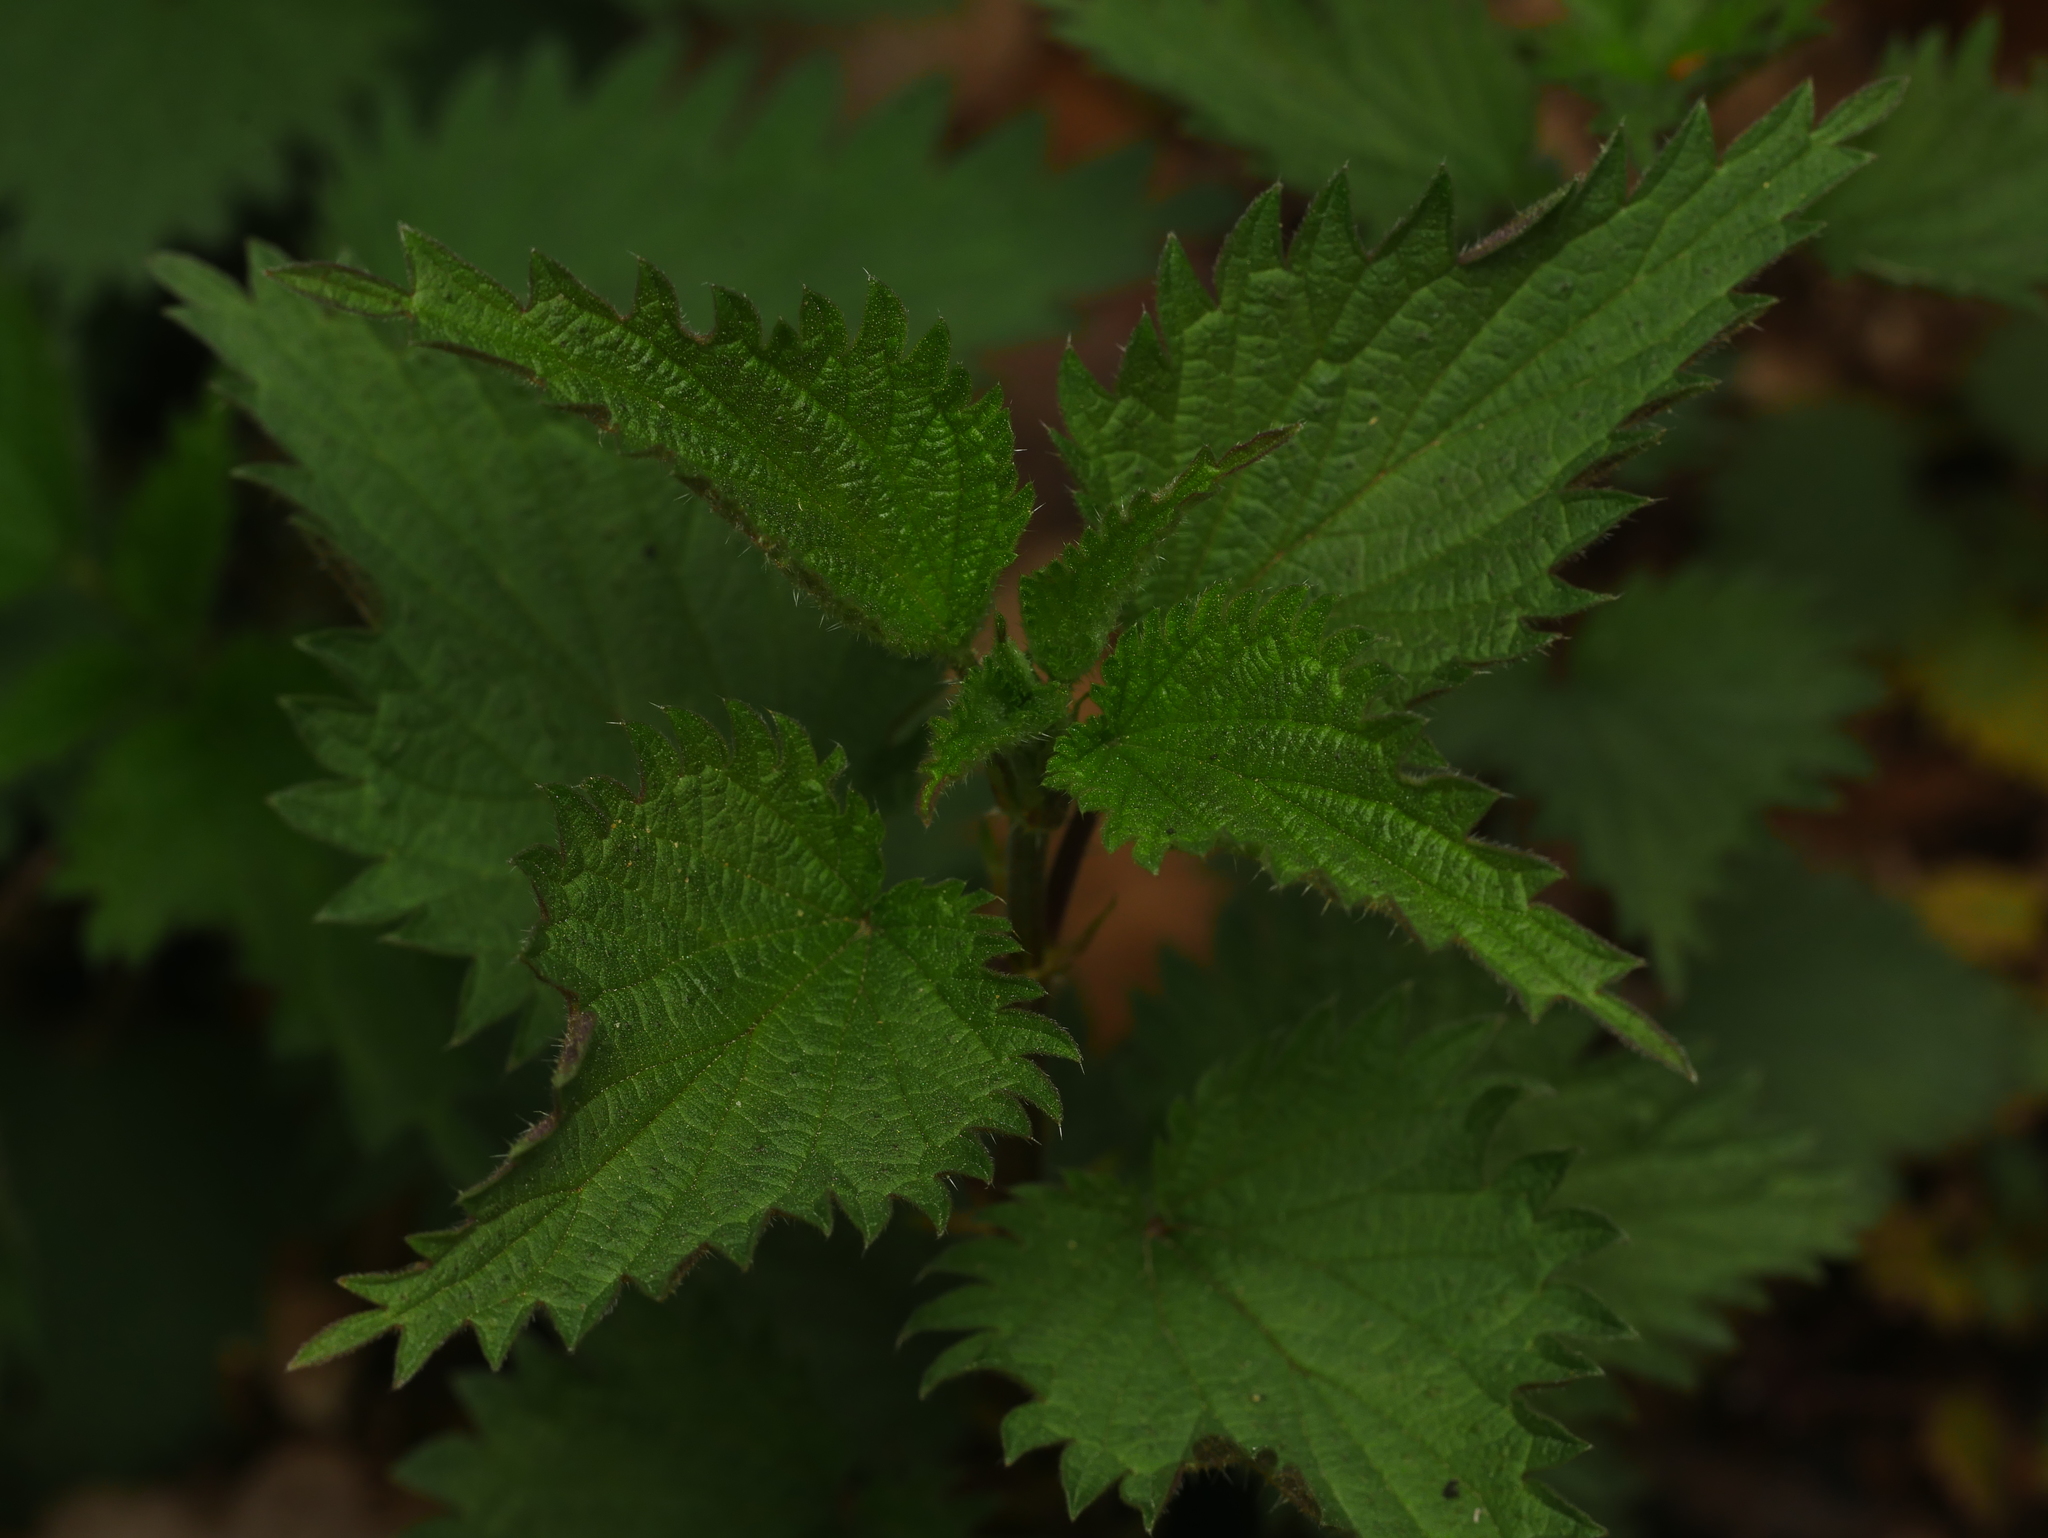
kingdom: Plantae
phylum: Tracheophyta
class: Magnoliopsida
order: Rosales
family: Urticaceae
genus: Urtica
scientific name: Urtica dioica
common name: Common nettle
